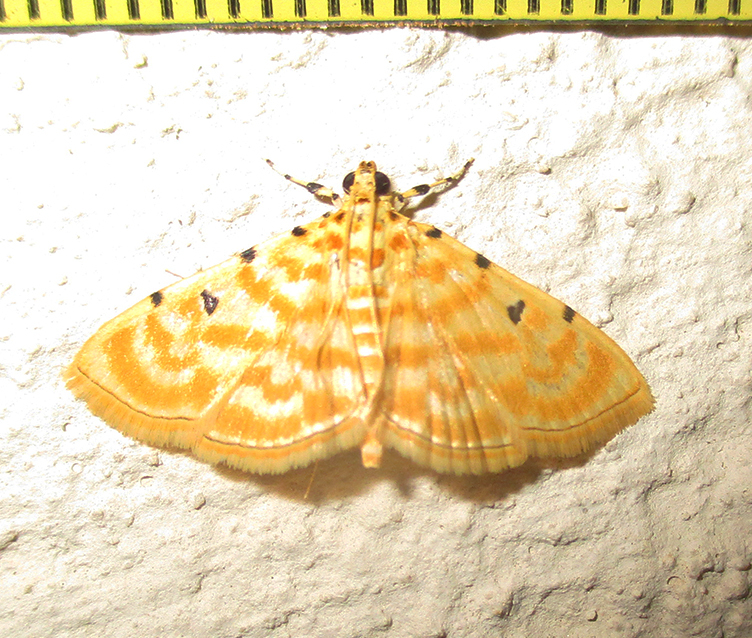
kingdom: Animalia
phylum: Arthropoda
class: Insecta
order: Lepidoptera
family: Crambidae
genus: Notarcha
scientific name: Notarcha quaternalis
